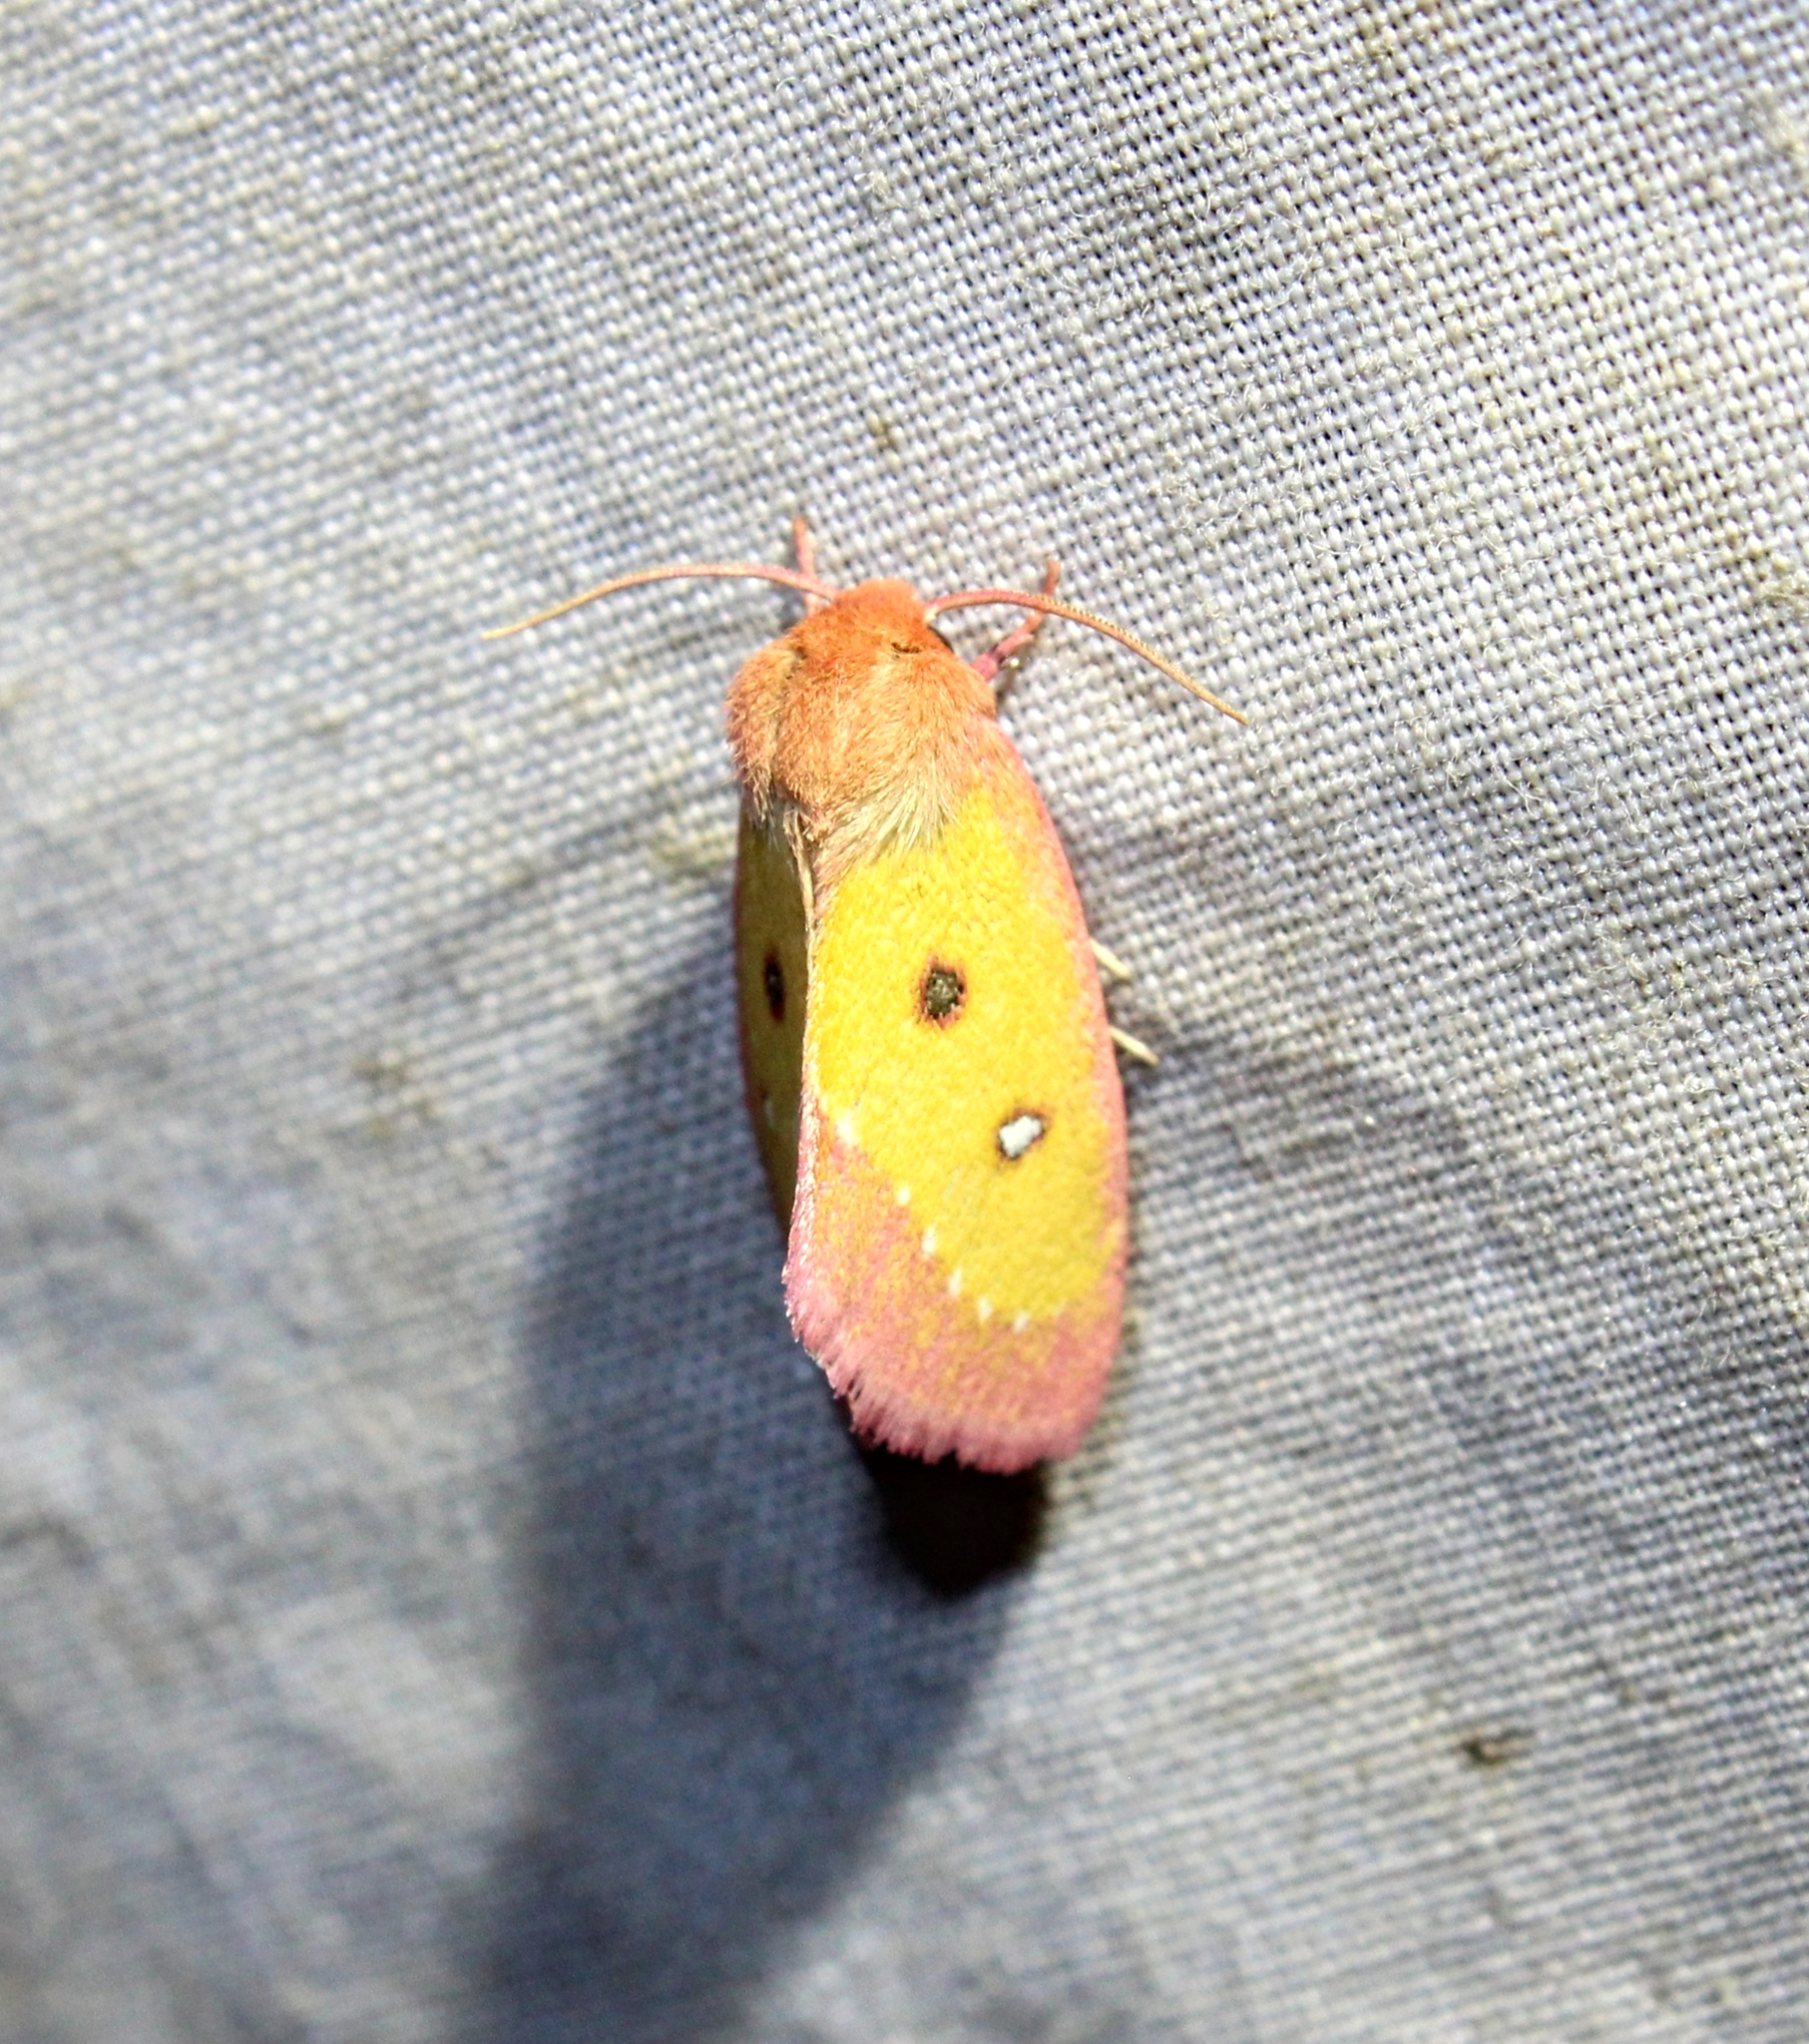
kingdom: Animalia
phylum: Arthropoda
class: Insecta
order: Lepidoptera
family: Noctuidae
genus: Derrima
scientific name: Derrima stellata
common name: Pink star moth
